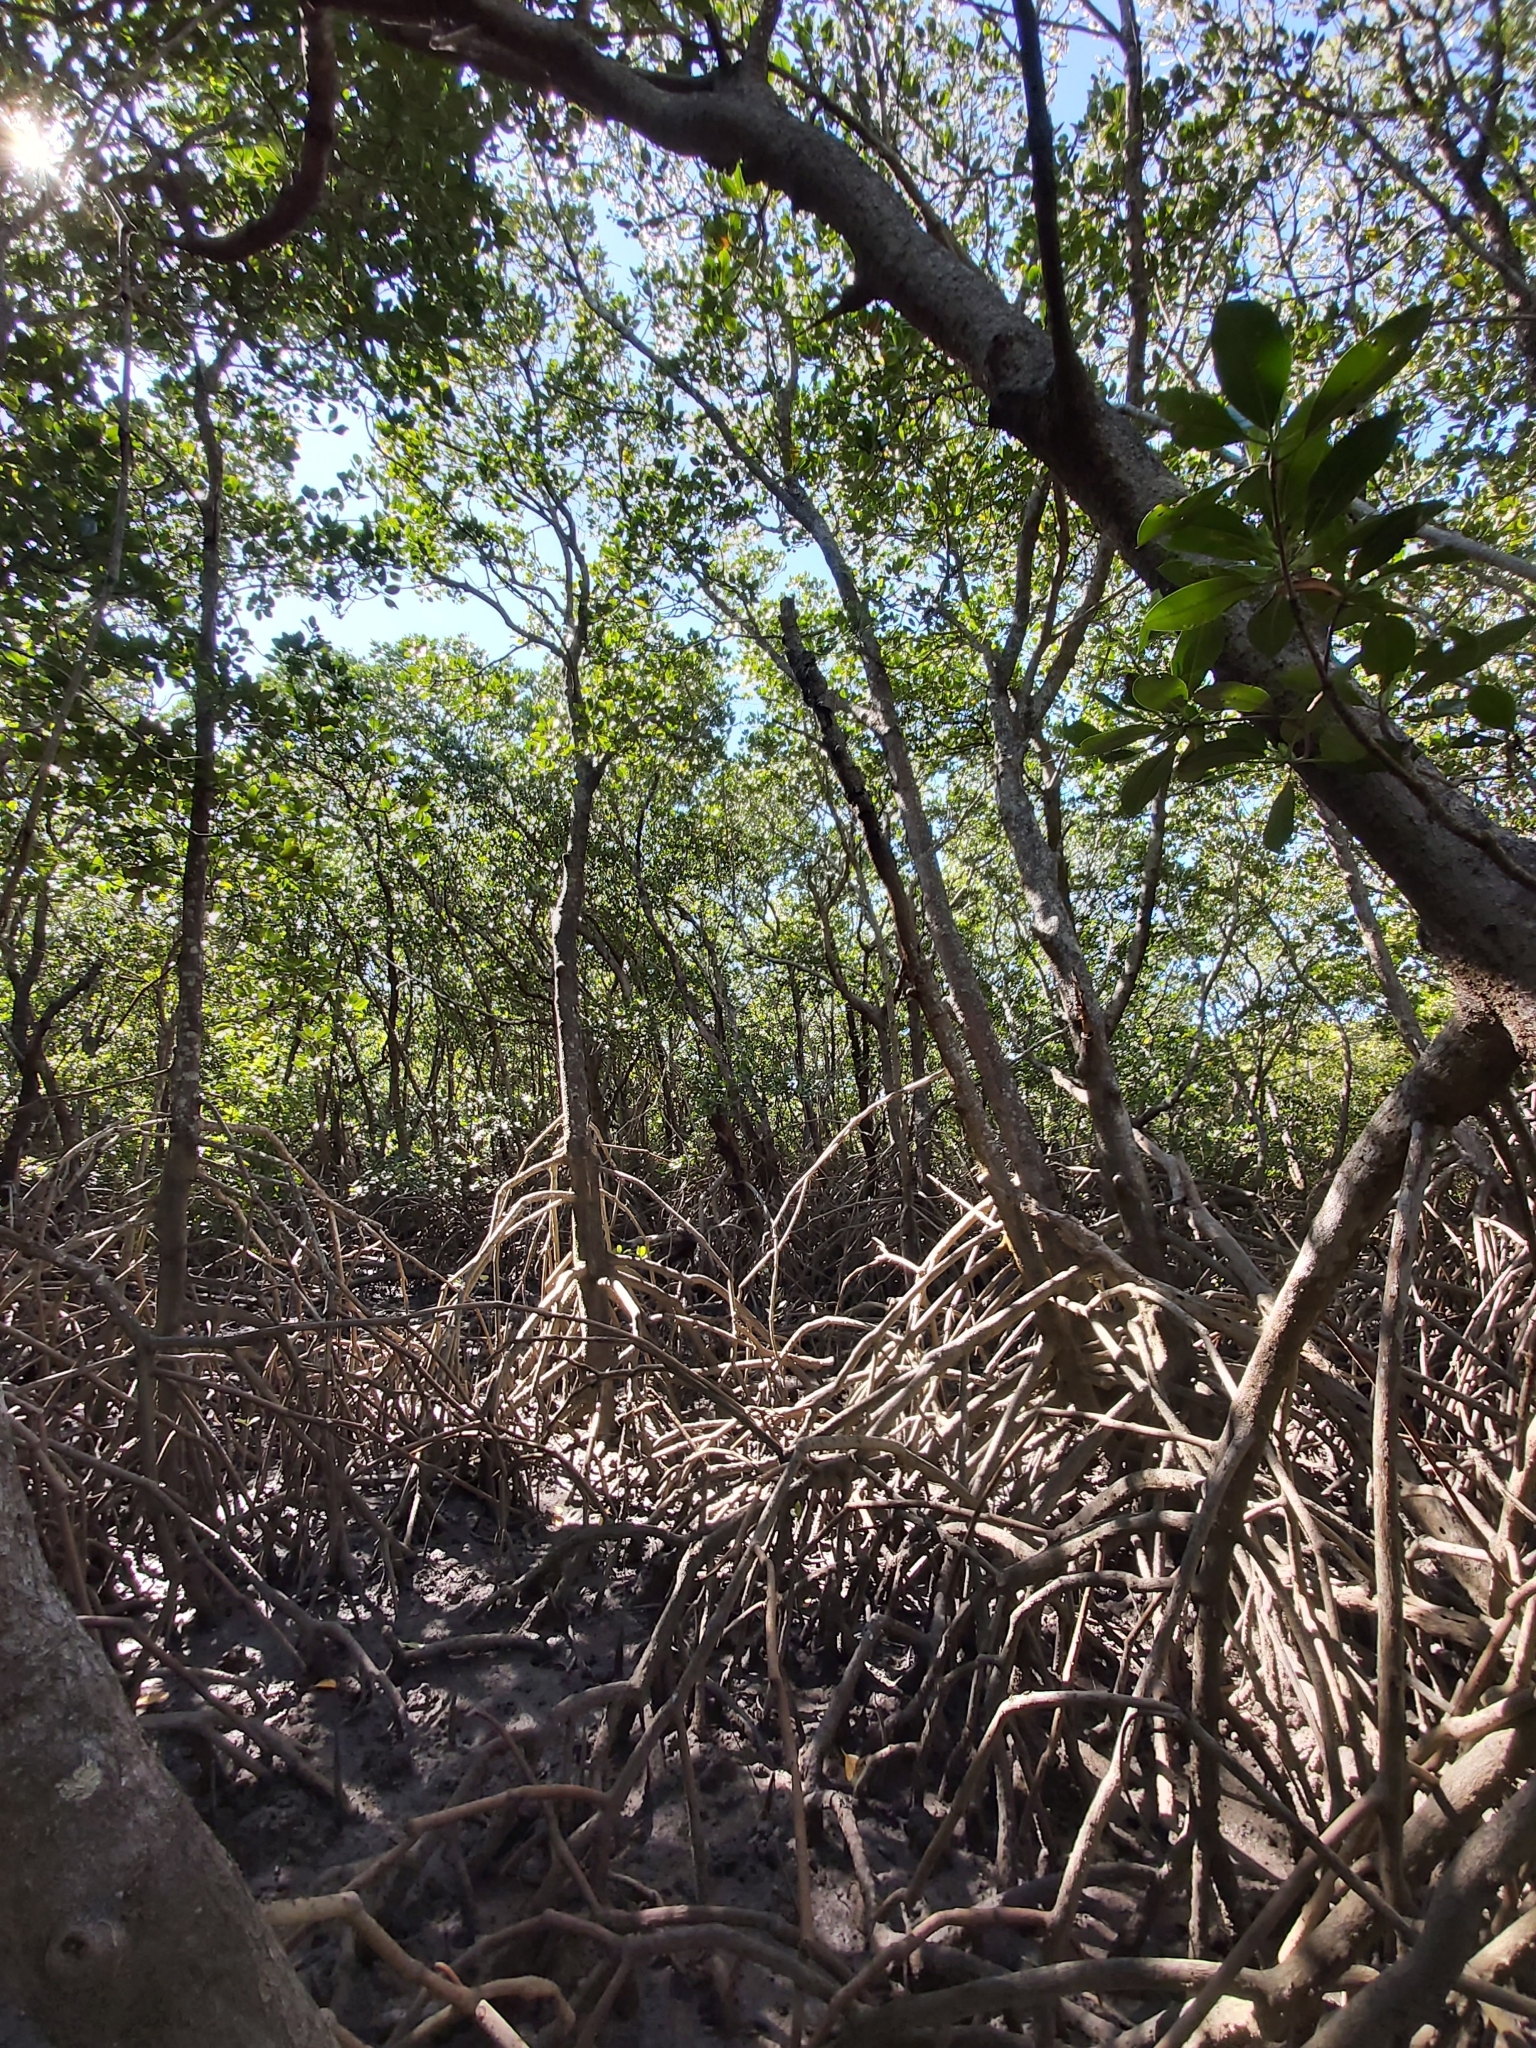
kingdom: Plantae
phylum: Tracheophyta
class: Magnoliopsida
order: Malpighiales
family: Rhizophoraceae
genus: Rhizophora
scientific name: Rhizophora stylosa
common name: Red mangrove
